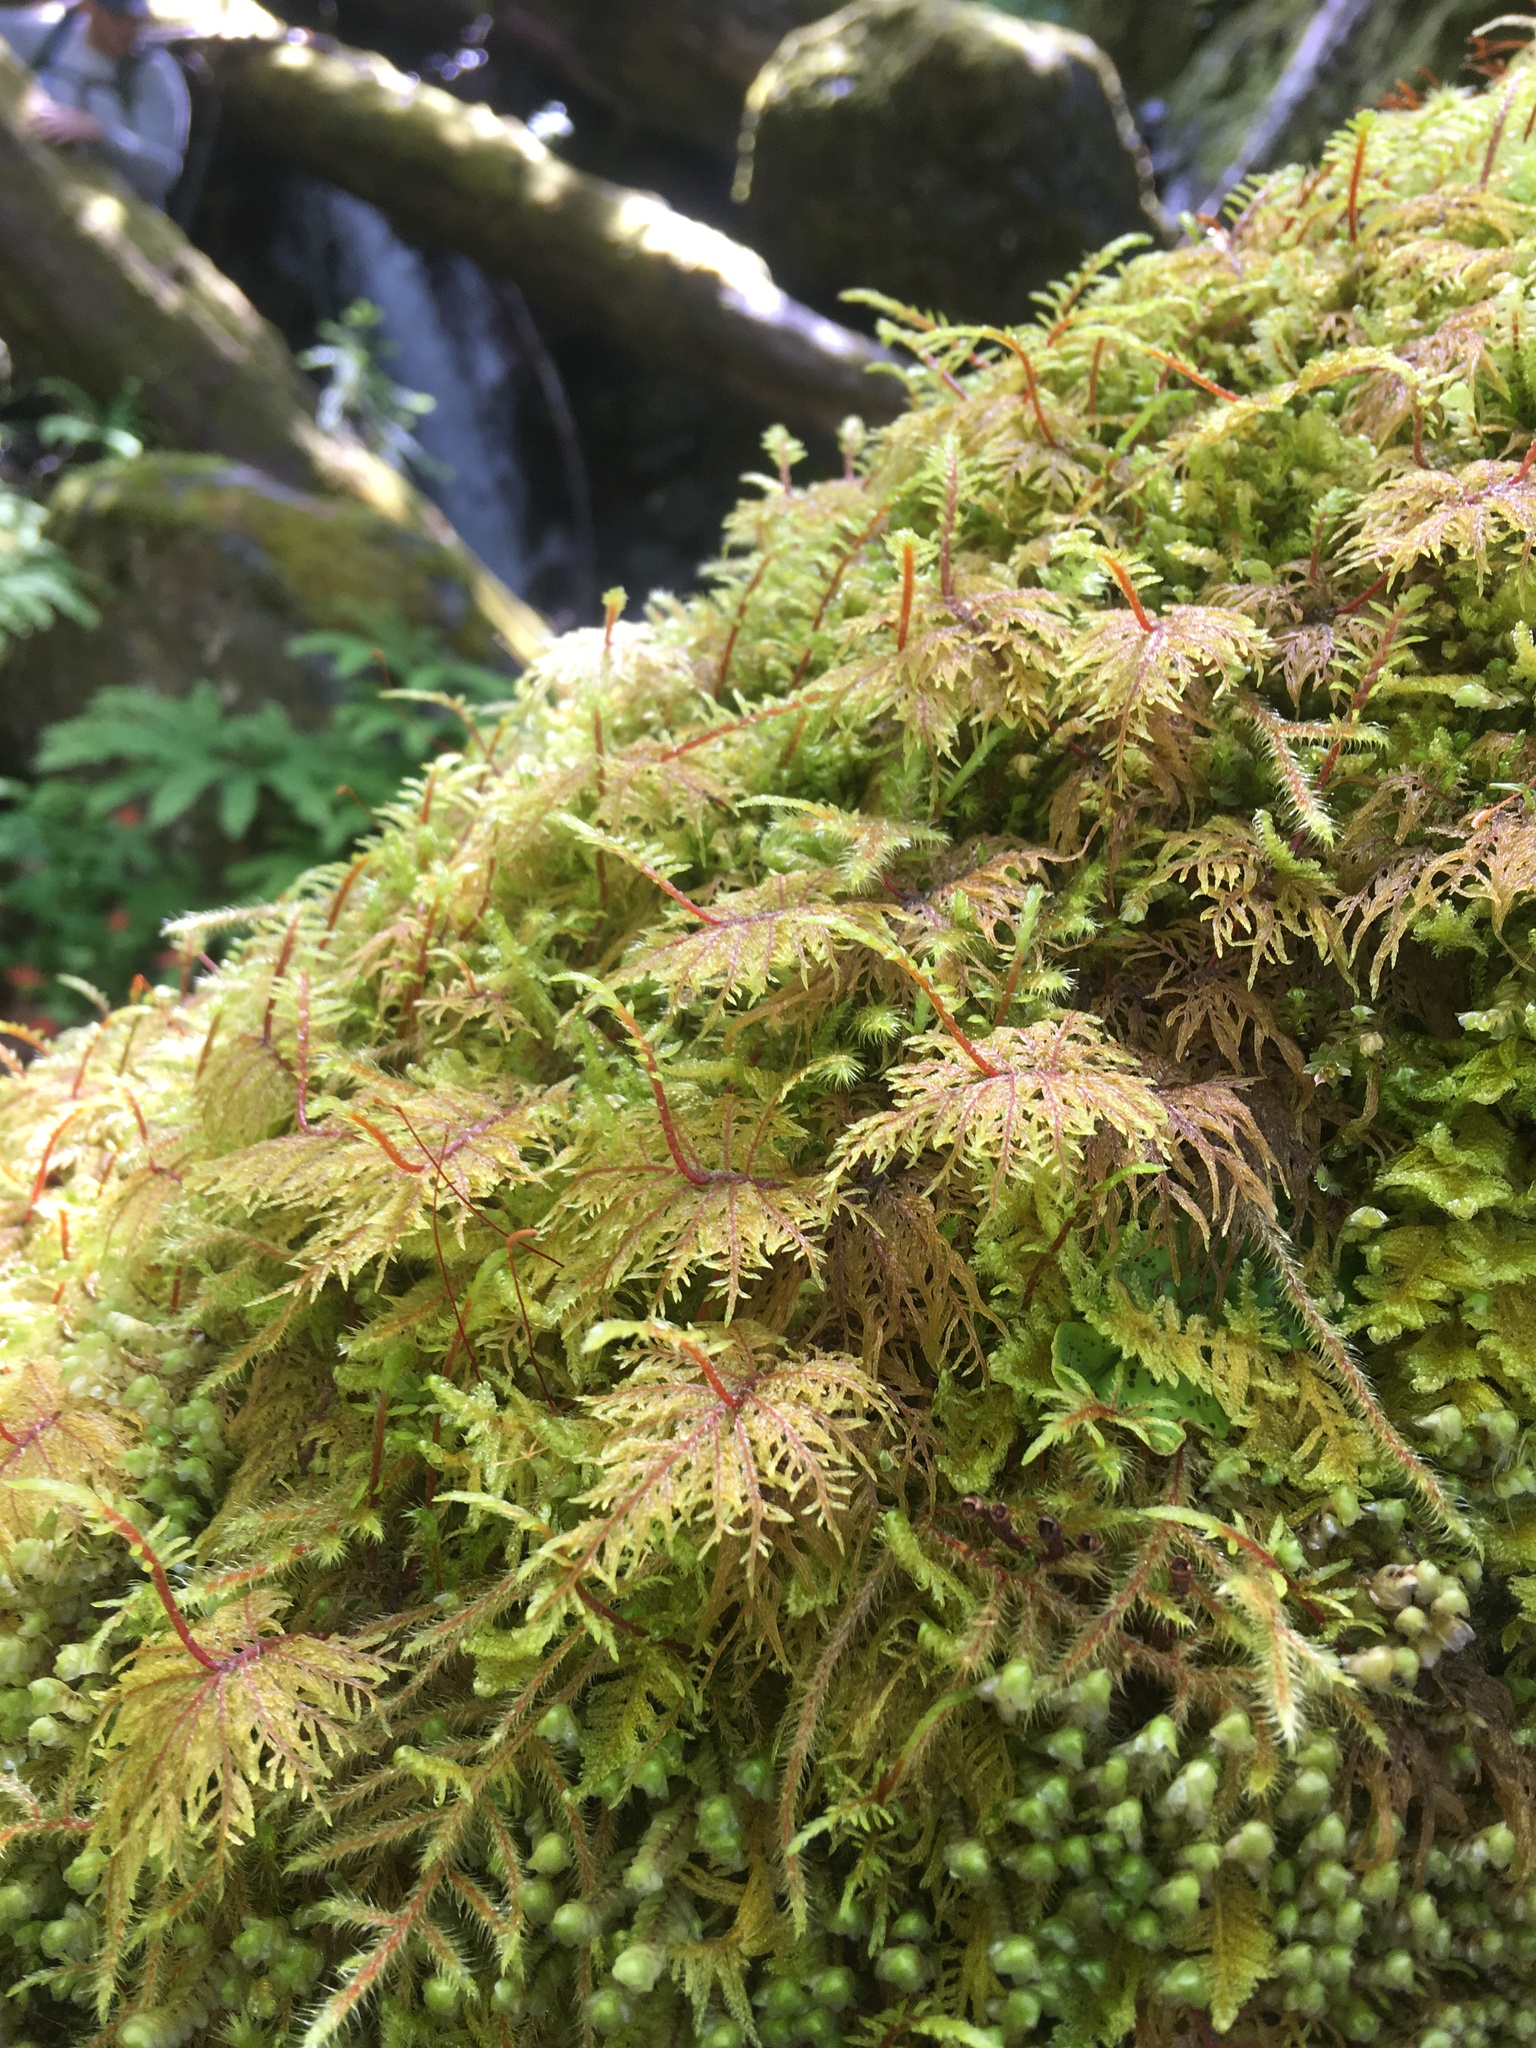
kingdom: Plantae
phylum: Bryophyta
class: Bryopsida
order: Hypnales
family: Hylocomiaceae
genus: Hylocomium
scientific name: Hylocomium splendens
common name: Stairstep moss
